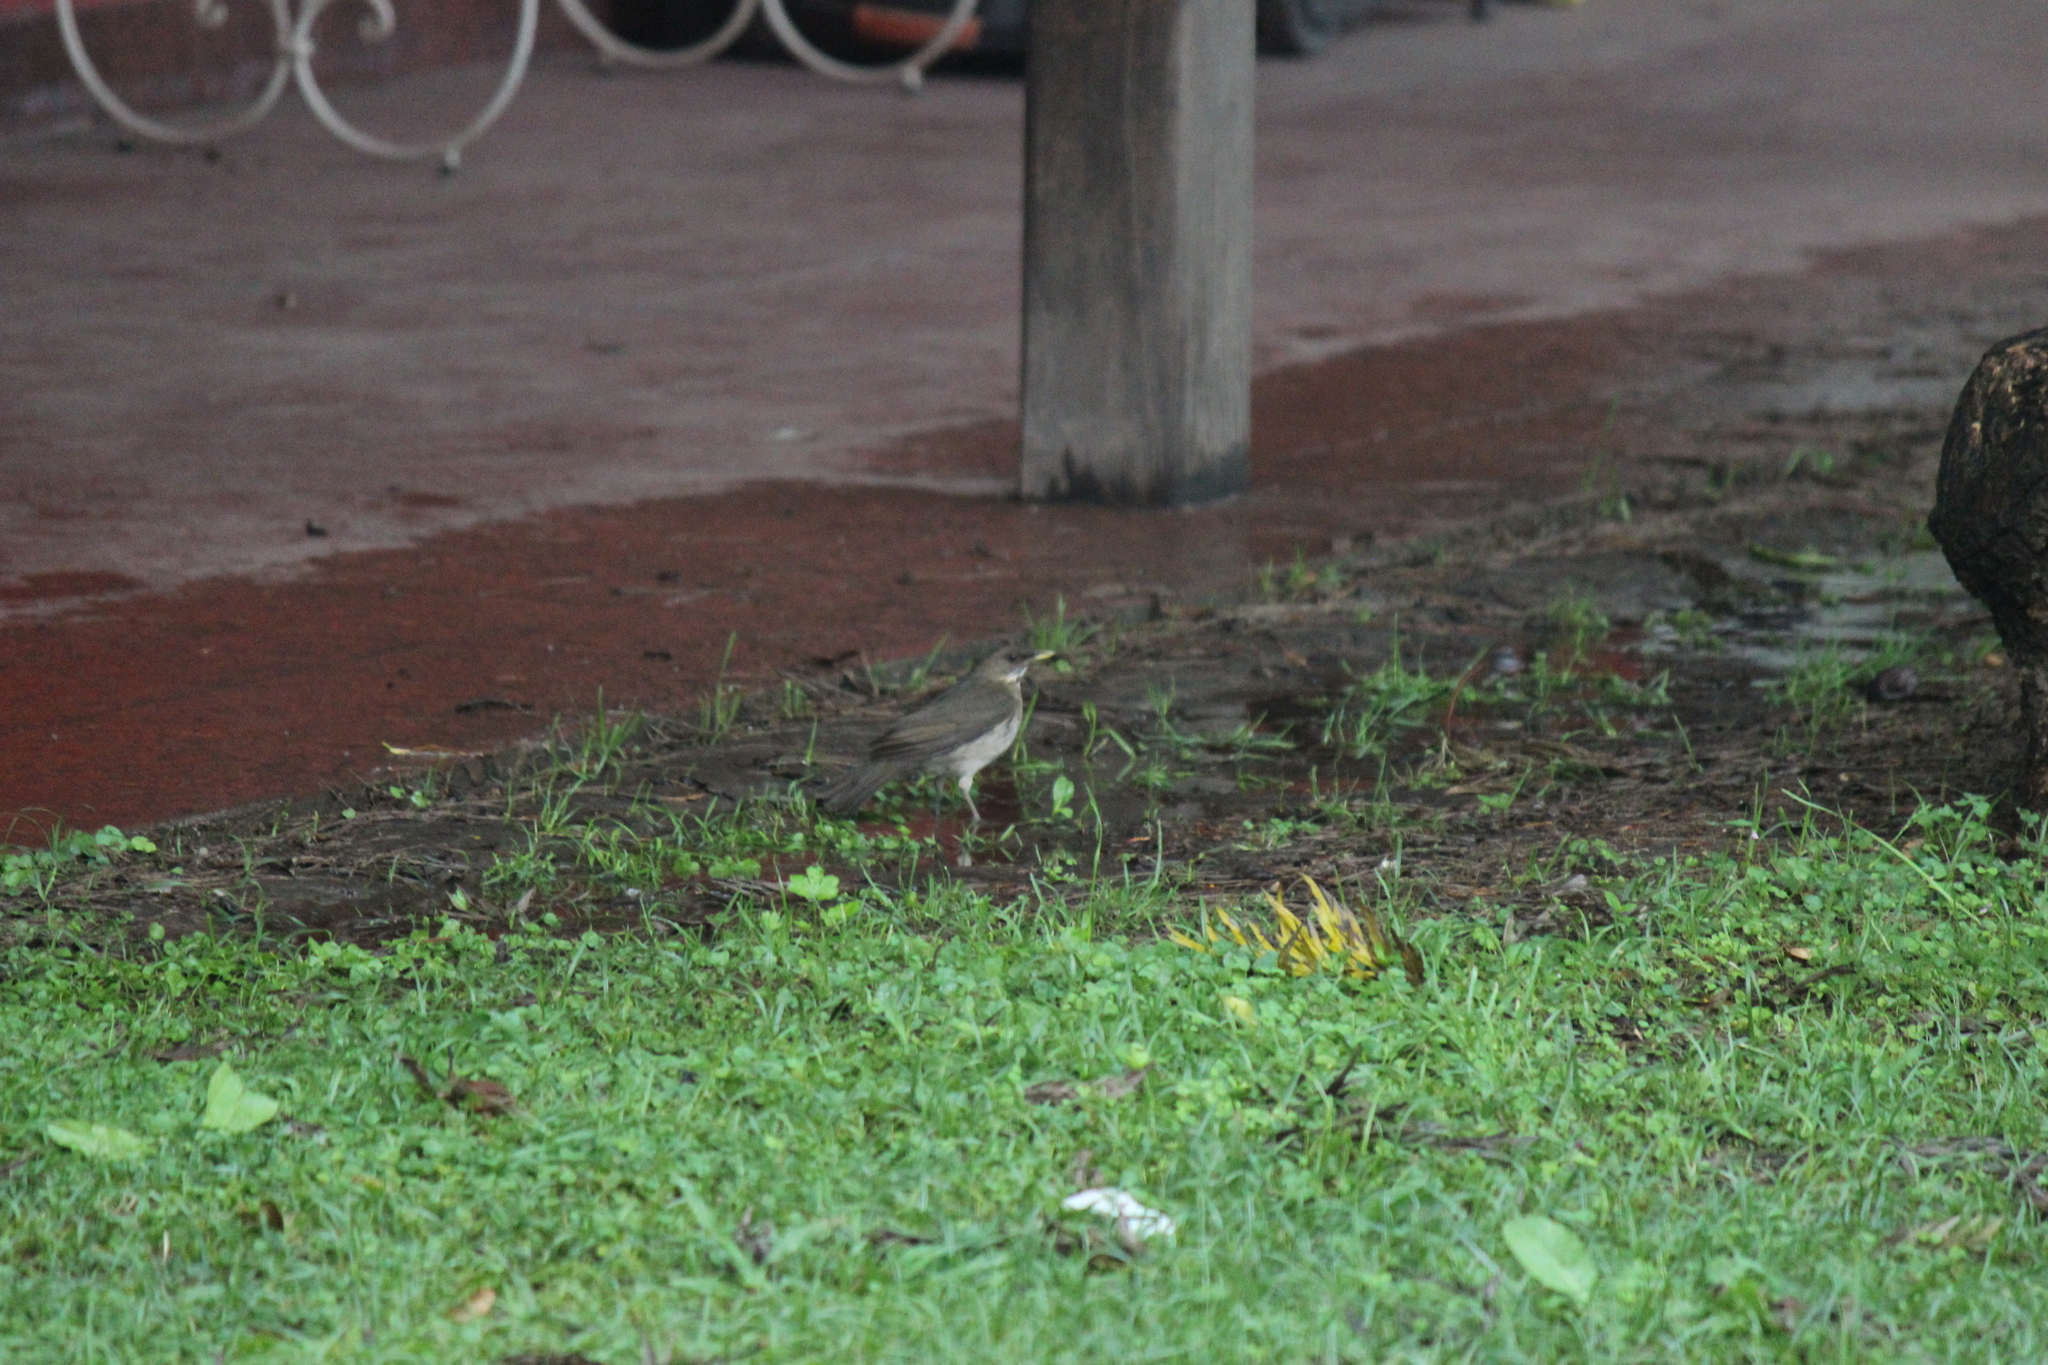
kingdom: Animalia
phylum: Chordata
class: Aves
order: Passeriformes
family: Turdidae
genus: Turdus
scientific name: Turdus amaurochalinus
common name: Creamy-bellied thrush
